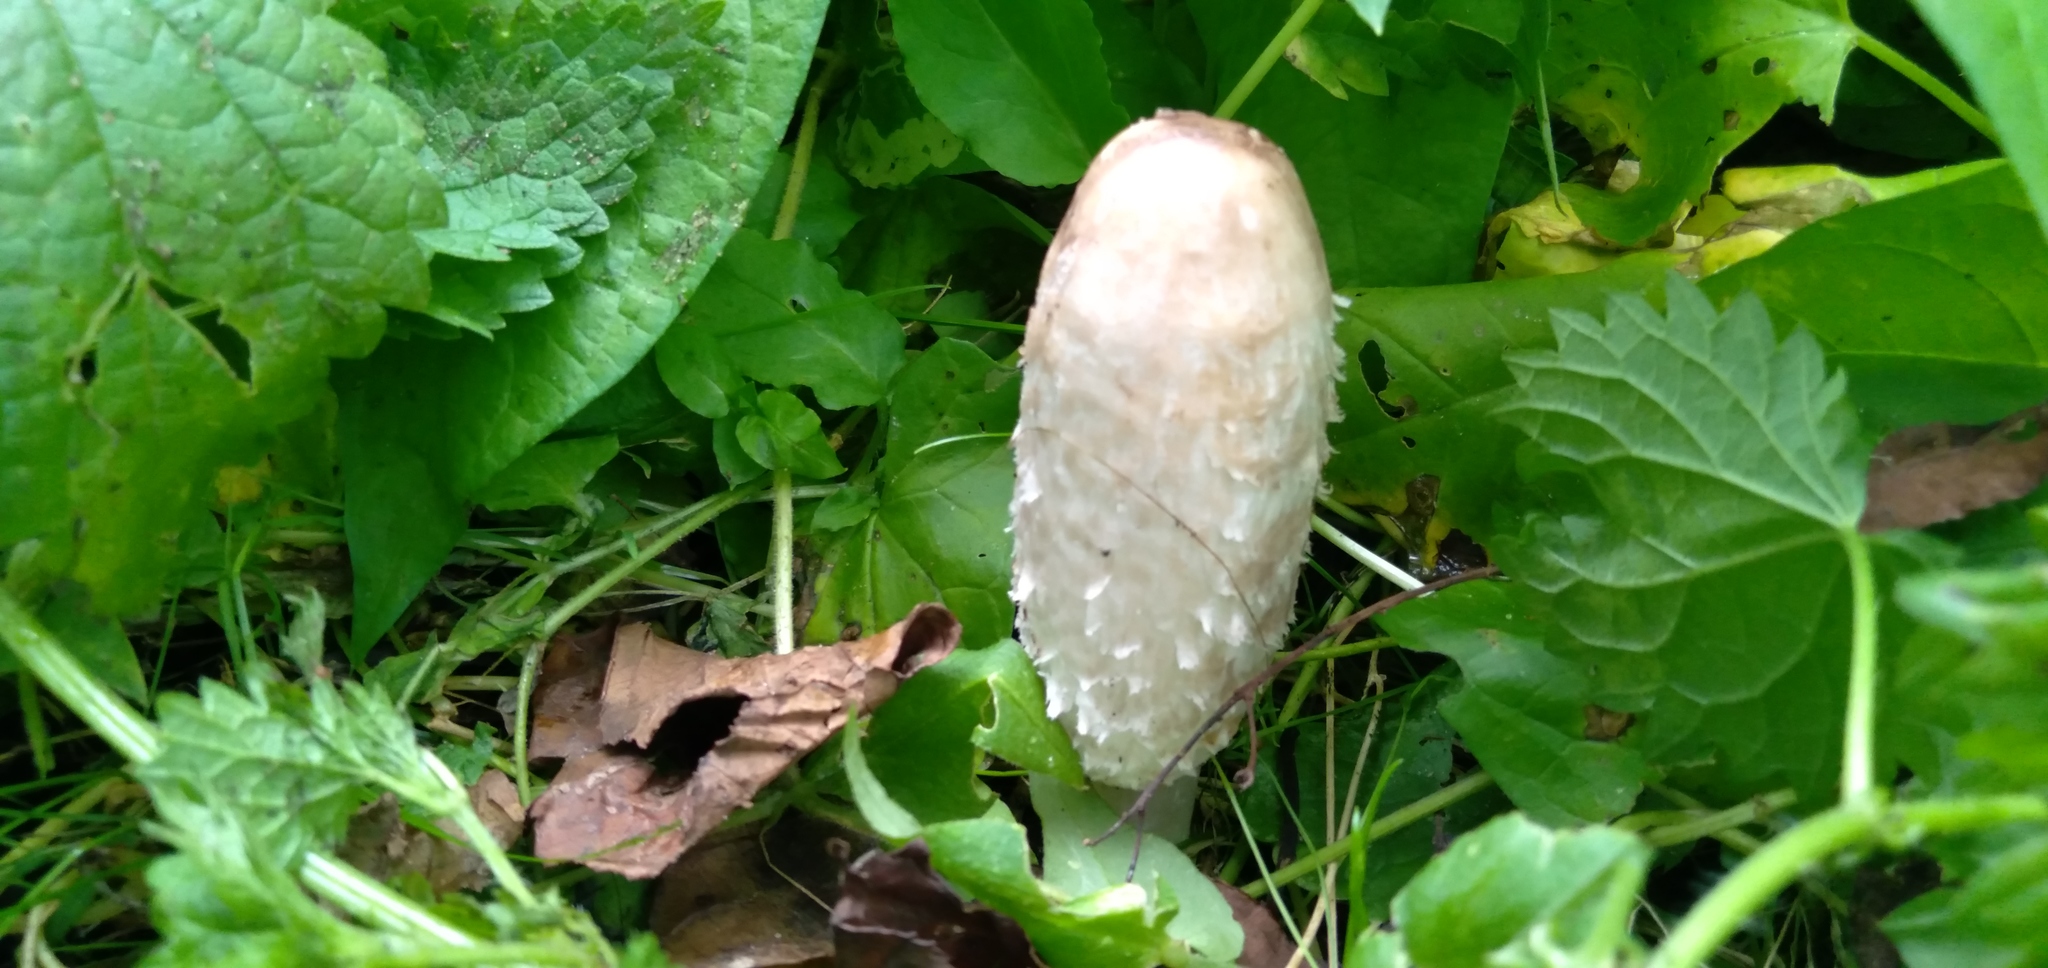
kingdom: Fungi
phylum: Basidiomycota
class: Agaricomycetes
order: Agaricales
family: Agaricaceae
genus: Coprinus
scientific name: Coprinus comatus
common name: Lawyer's wig
